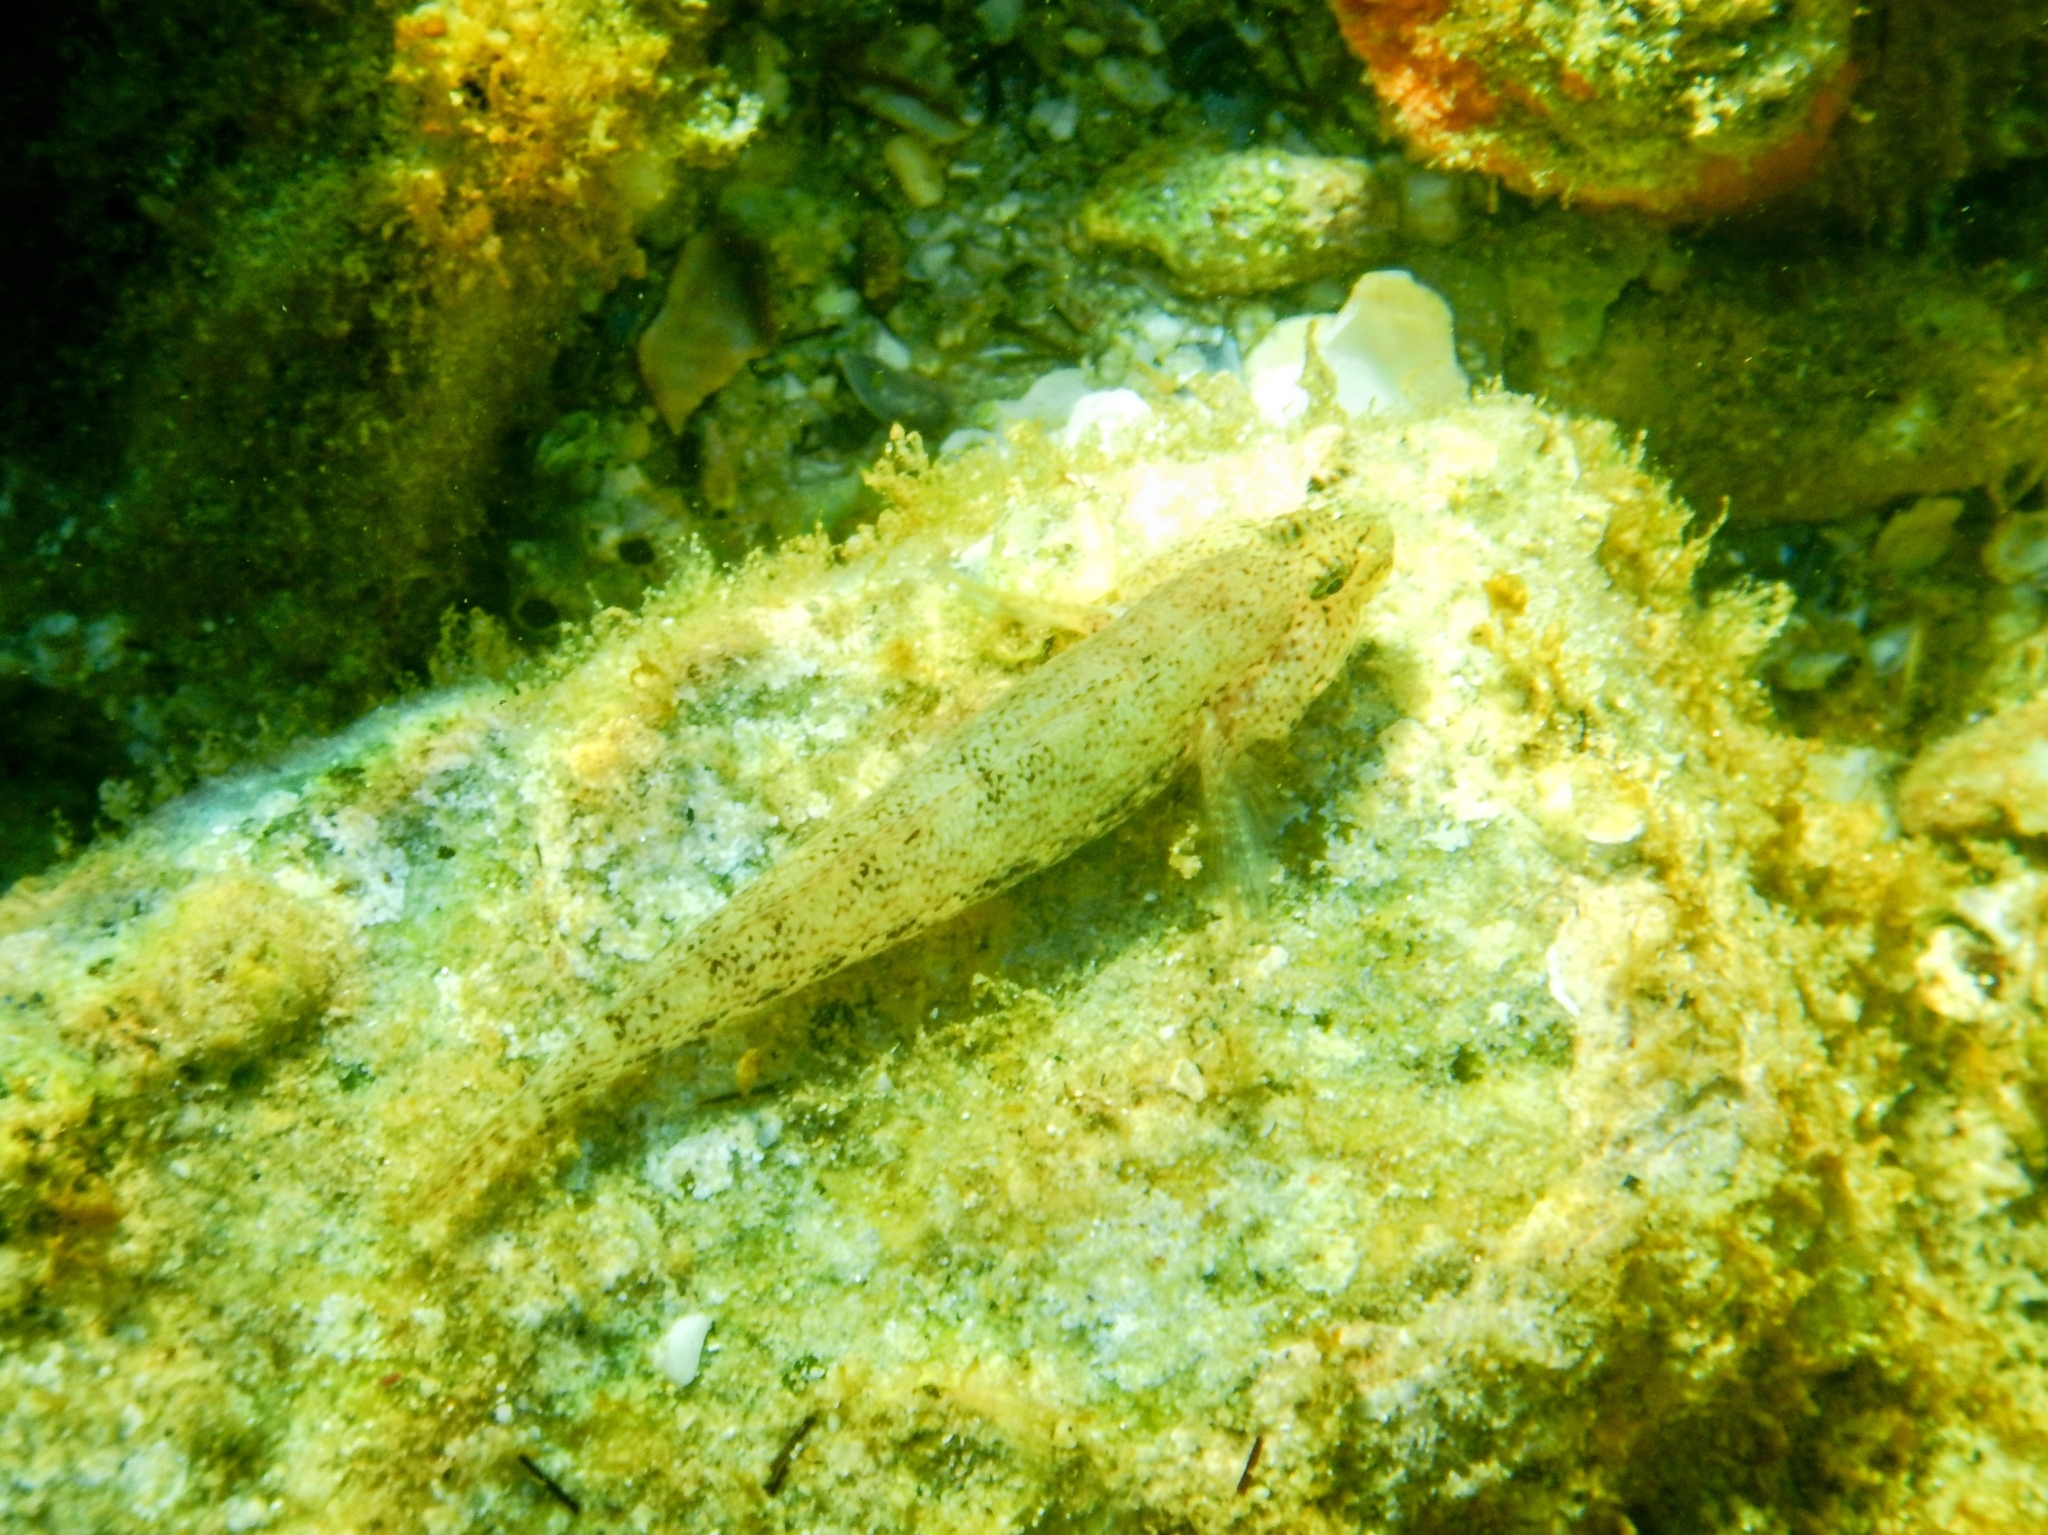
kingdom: Animalia
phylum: Chordata
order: Perciformes
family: Gobiidae
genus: Gobius
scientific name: Gobius incognitus
